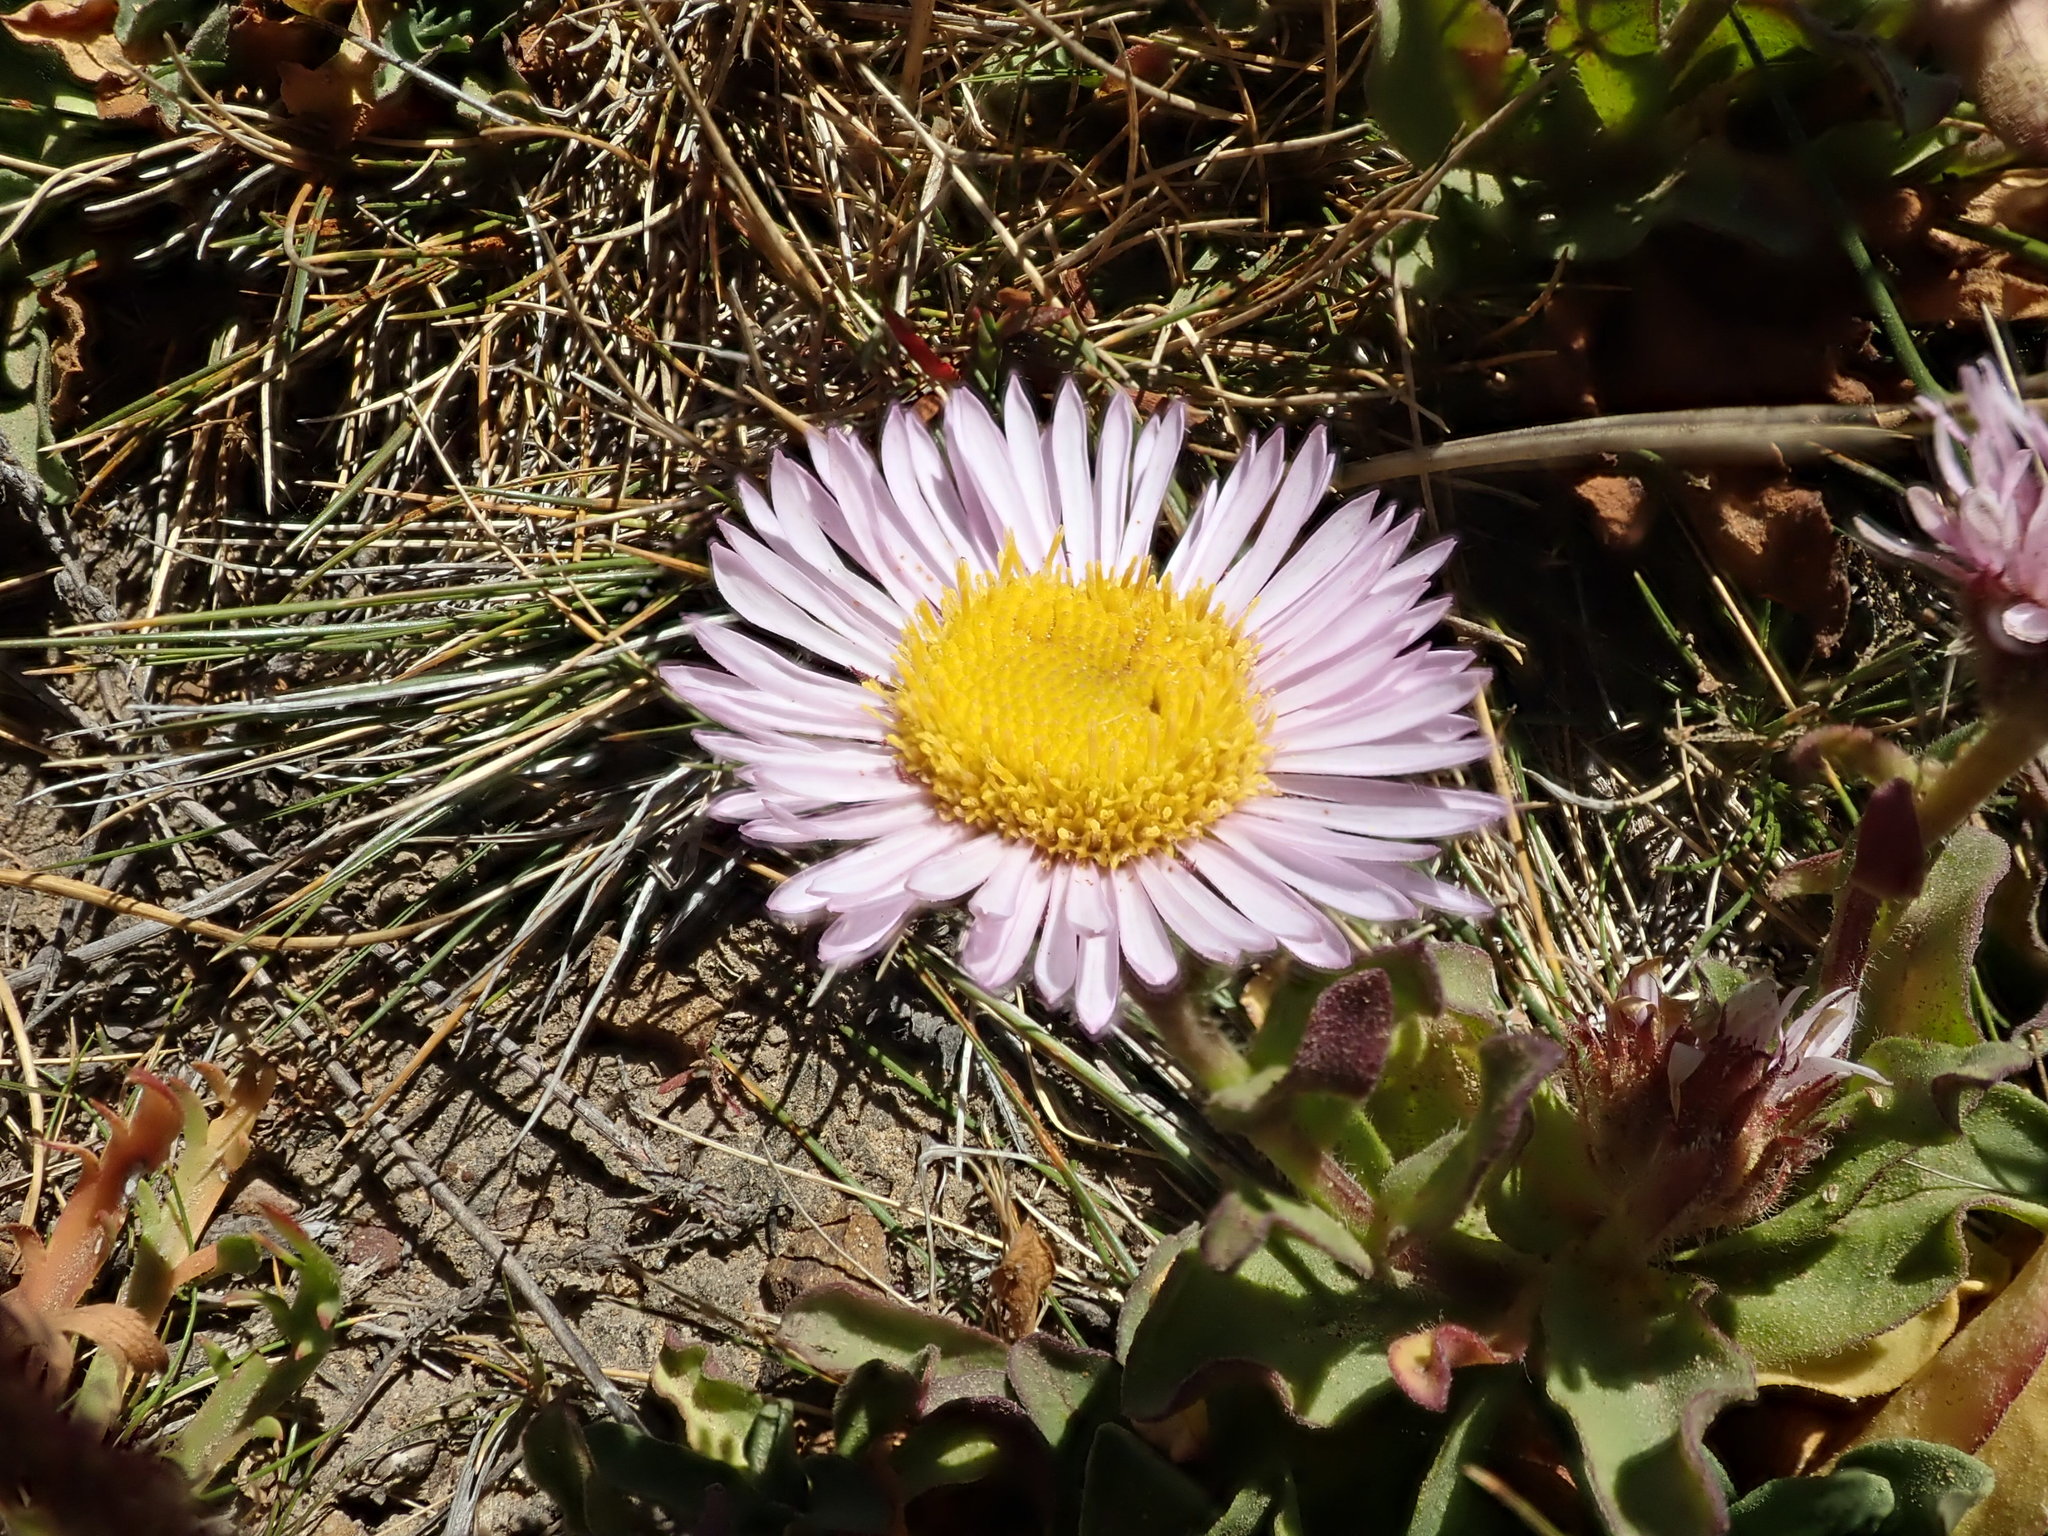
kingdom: Plantae
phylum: Tracheophyta
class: Magnoliopsida
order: Asterales
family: Asteraceae
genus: Erigeron
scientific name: Erigeron glaucus
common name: Seaside daisy
